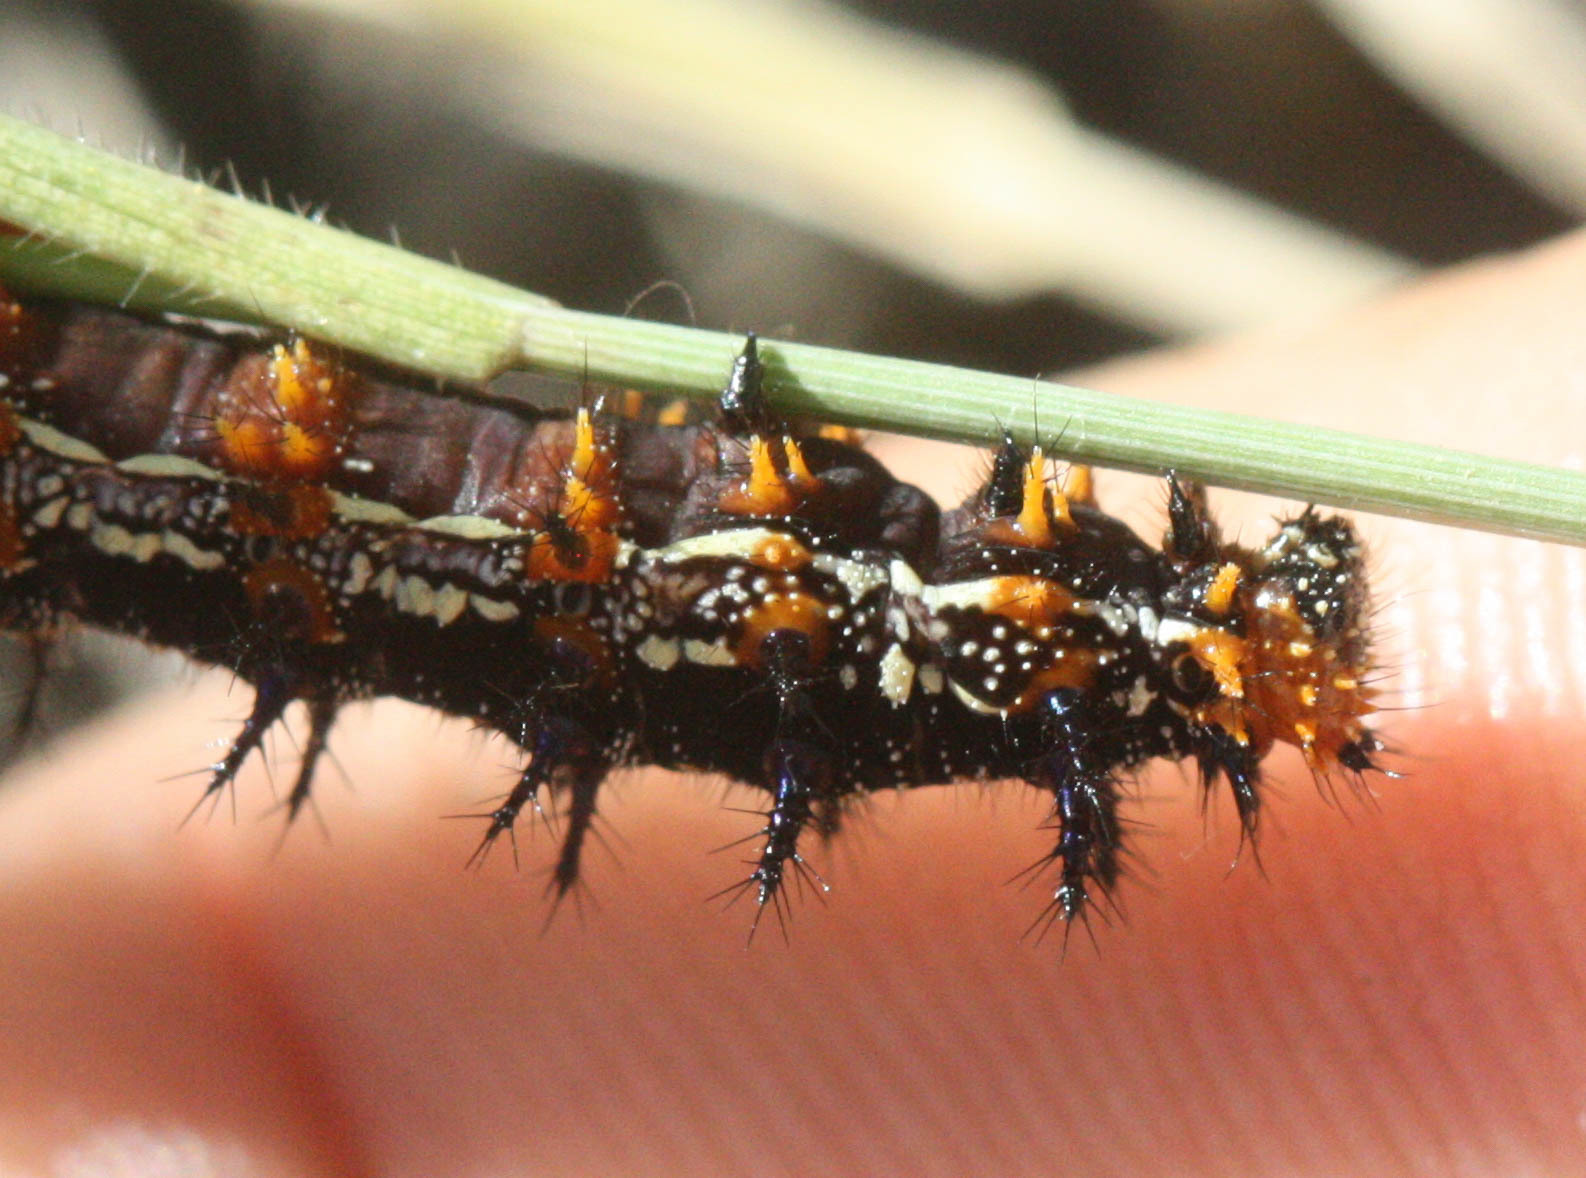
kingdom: Animalia
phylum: Arthropoda
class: Insecta
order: Lepidoptera
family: Nymphalidae
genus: Junonia
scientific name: Junonia grisea
